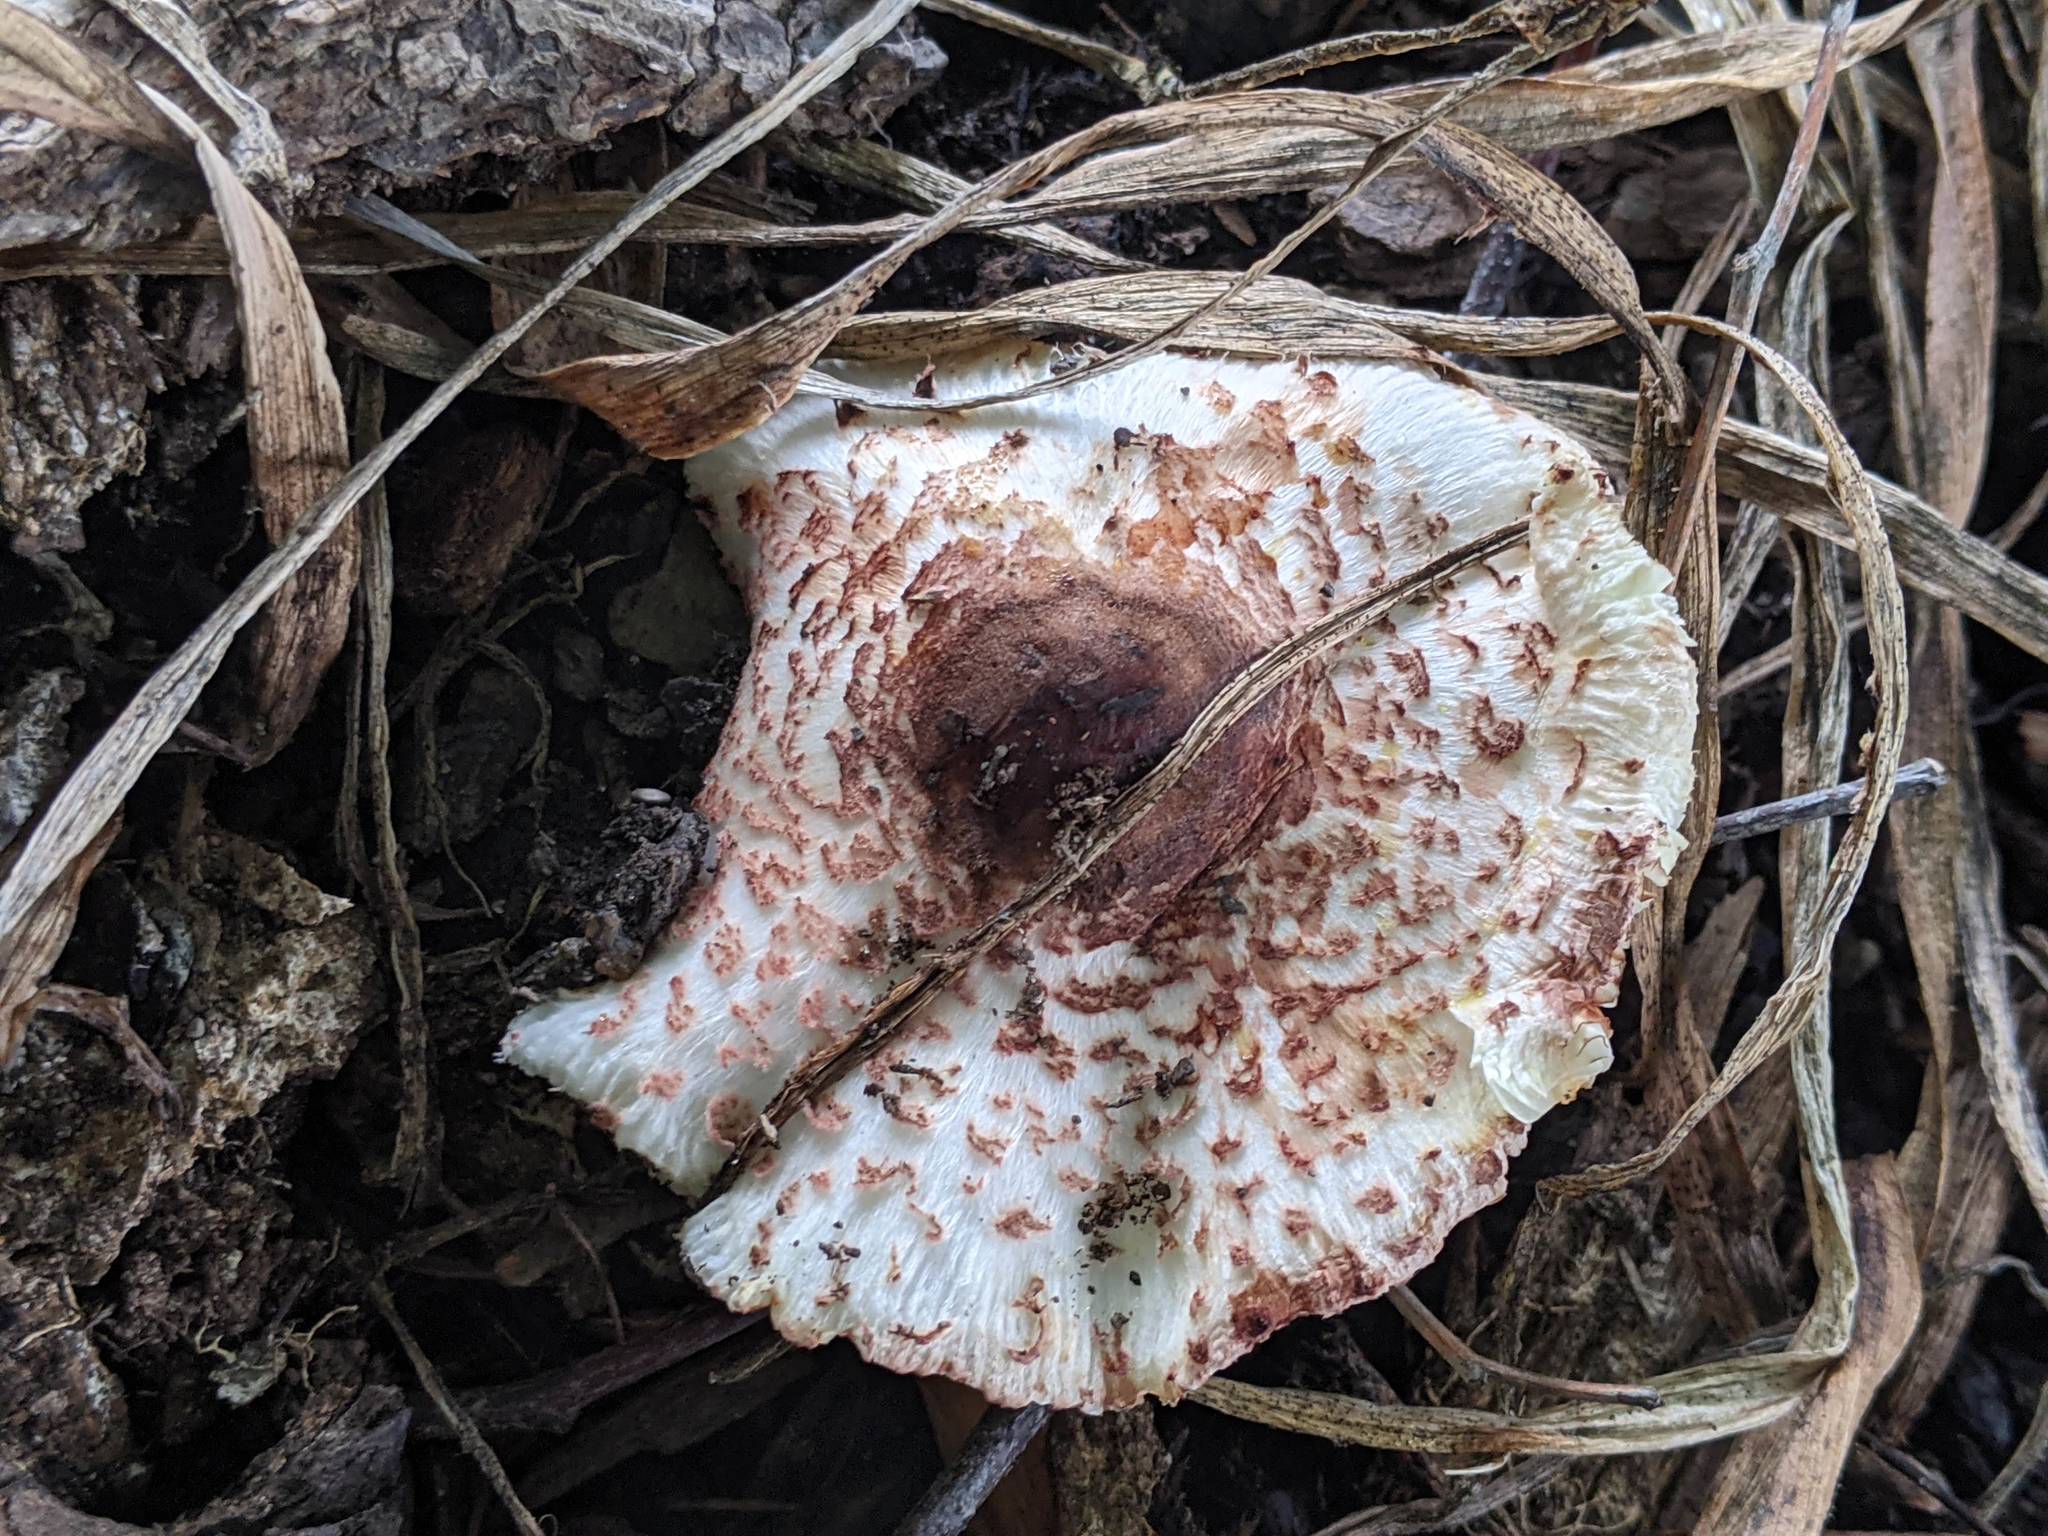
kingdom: Fungi
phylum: Basidiomycota
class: Agaricomycetes
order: Agaricales
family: Agaricaceae
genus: Leucoagaricus
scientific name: Leucoagaricus americanus
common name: Reddening lepiota
